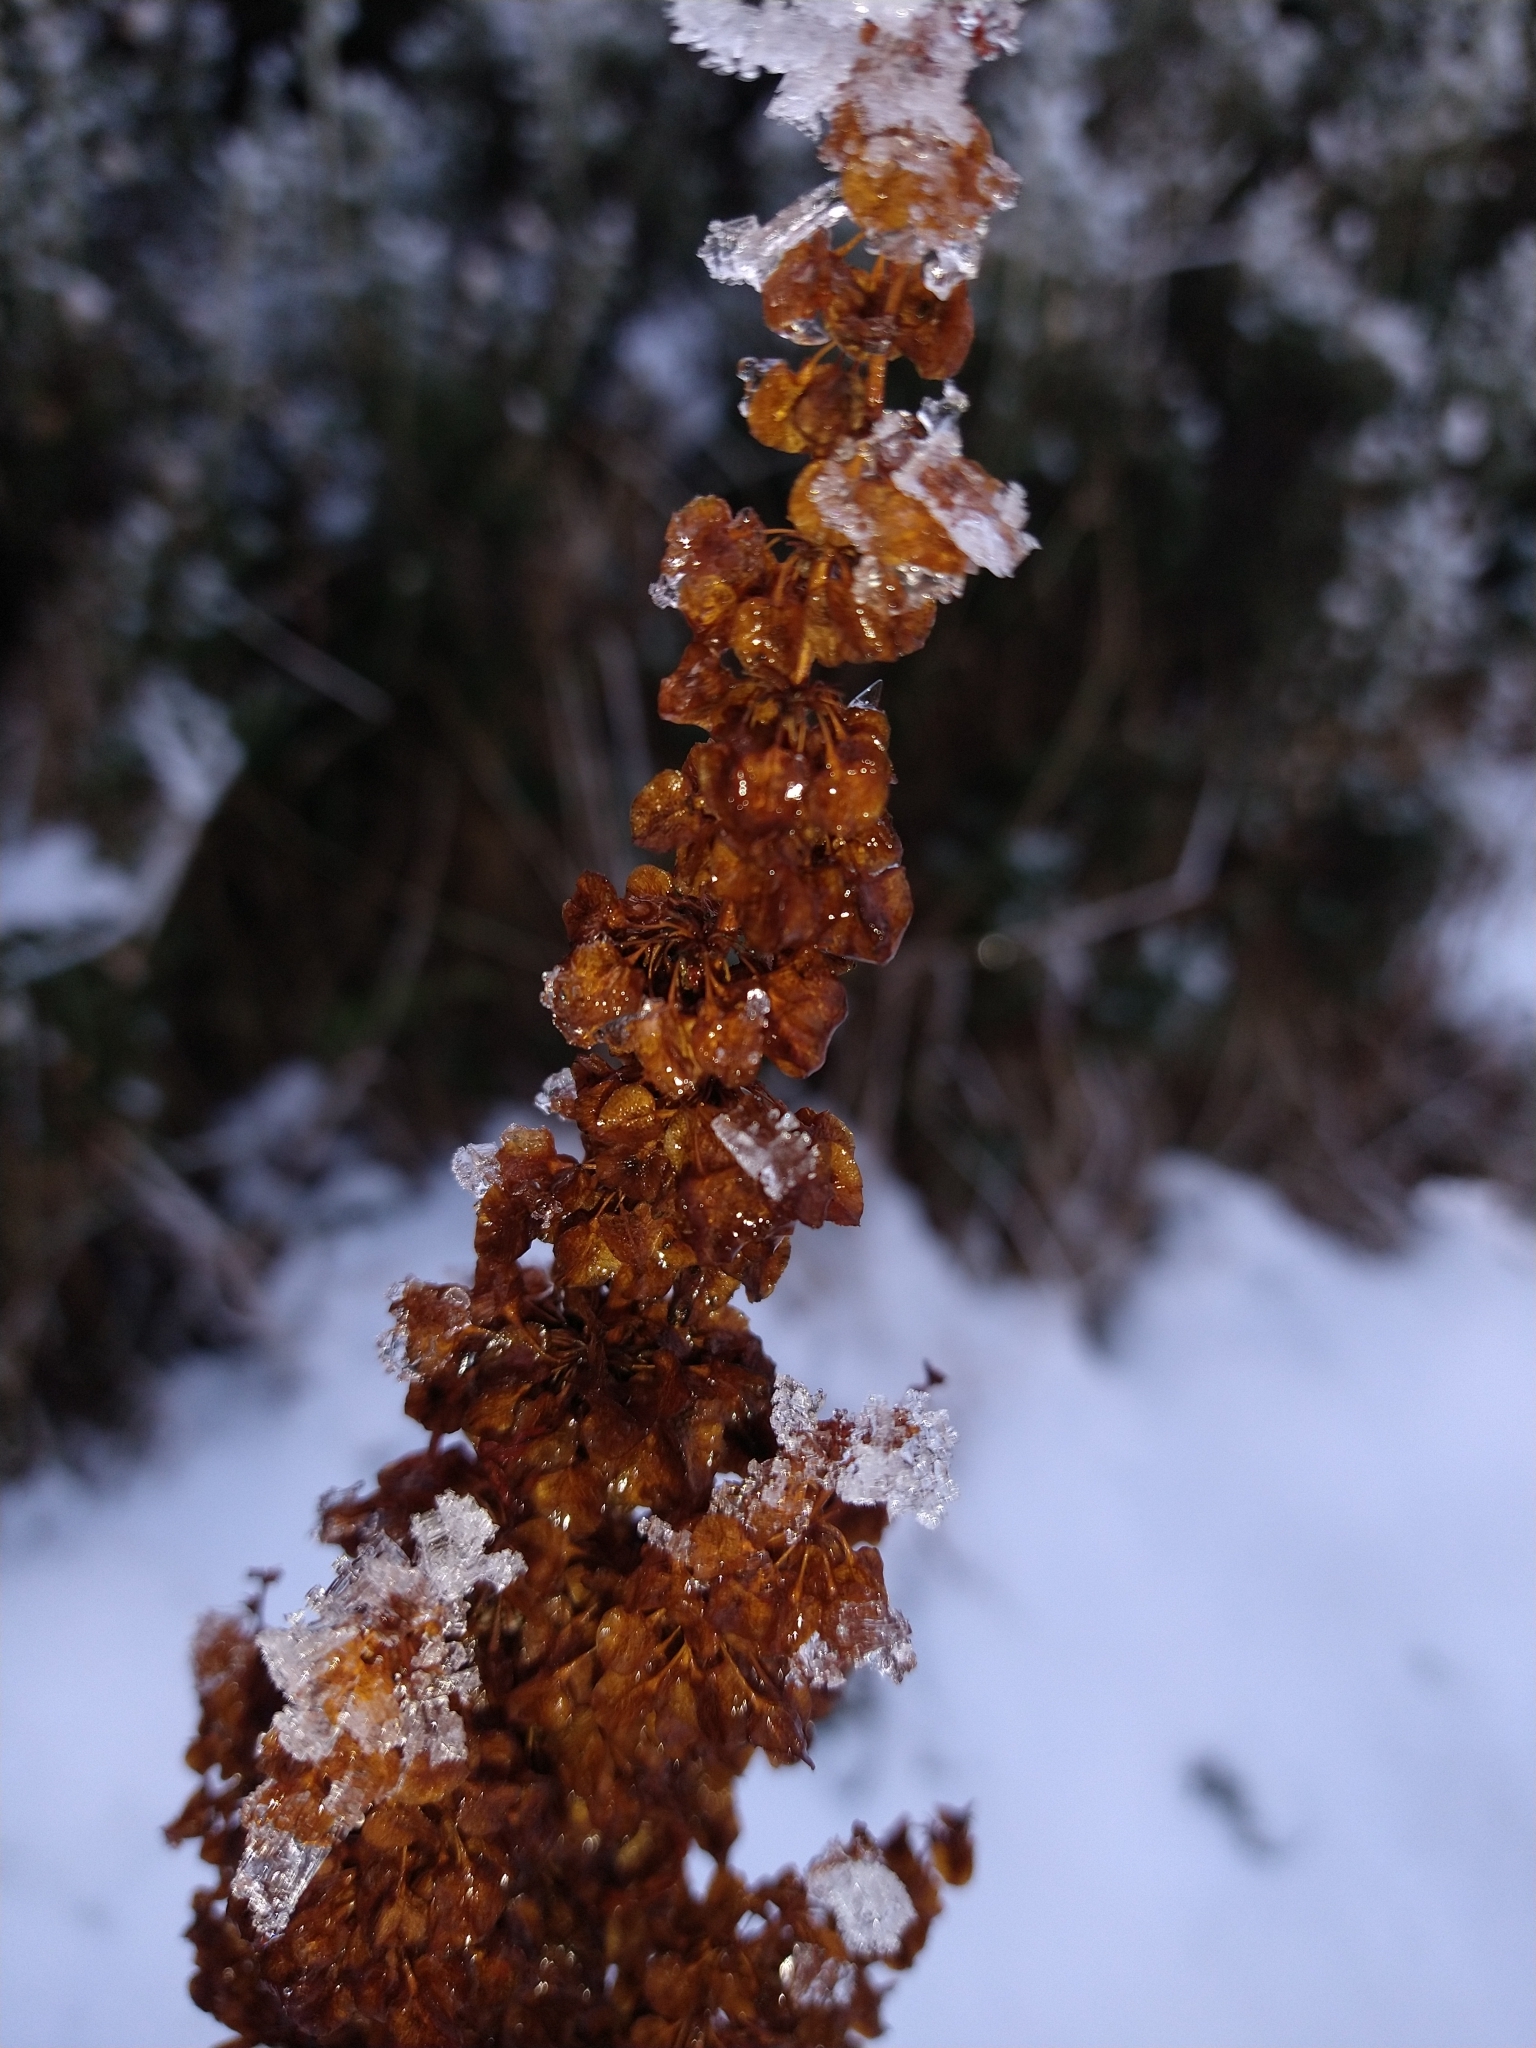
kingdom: Plantae
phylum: Tracheophyta
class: Magnoliopsida
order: Caryophyllales
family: Polygonaceae
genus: Rumex
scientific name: Rumex crispus
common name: Curled dock
